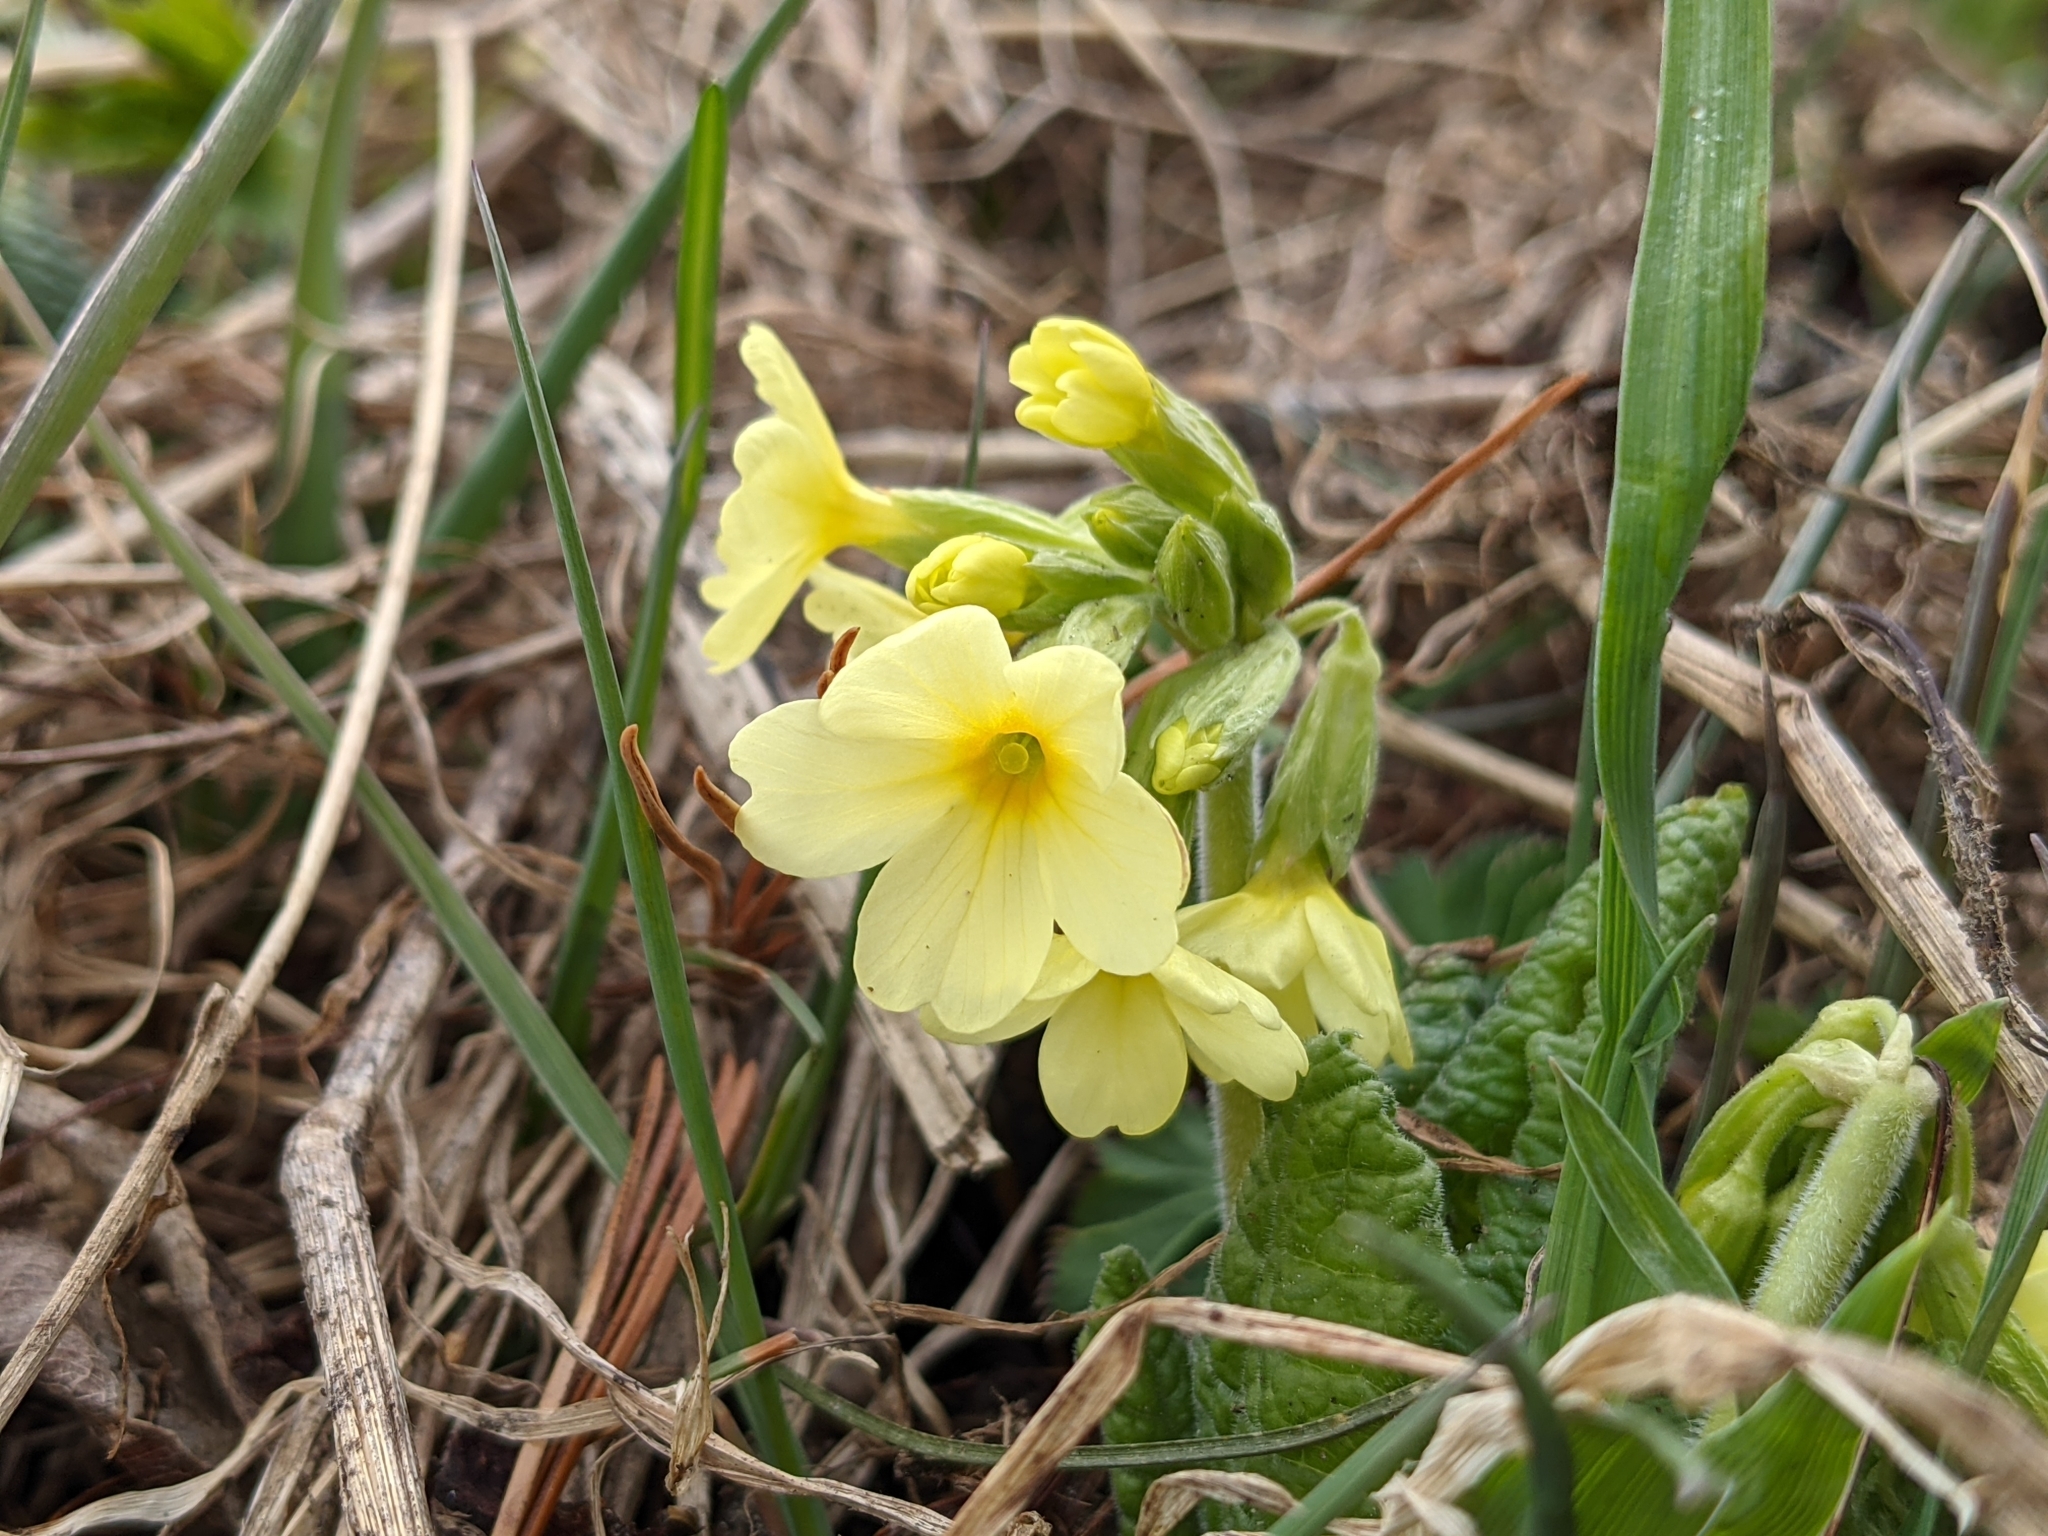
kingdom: Plantae
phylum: Tracheophyta
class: Magnoliopsida
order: Ericales
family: Primulaceae
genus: Primula
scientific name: Primula elatior
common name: Oxlip
